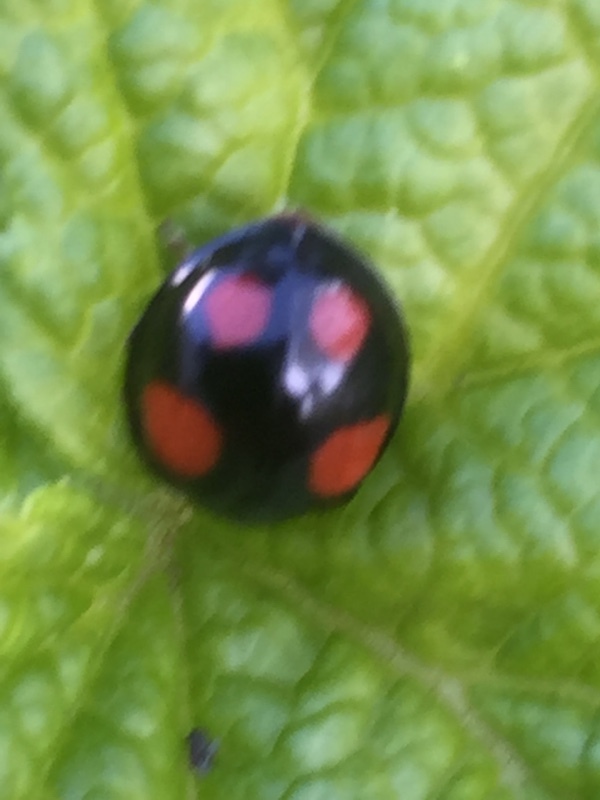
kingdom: Animalia
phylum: Arthropoda
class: Insecta
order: Coleoptera
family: Coccinellidae
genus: Harmonia
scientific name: Harmonia axyridis
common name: Harlequin ladybird
